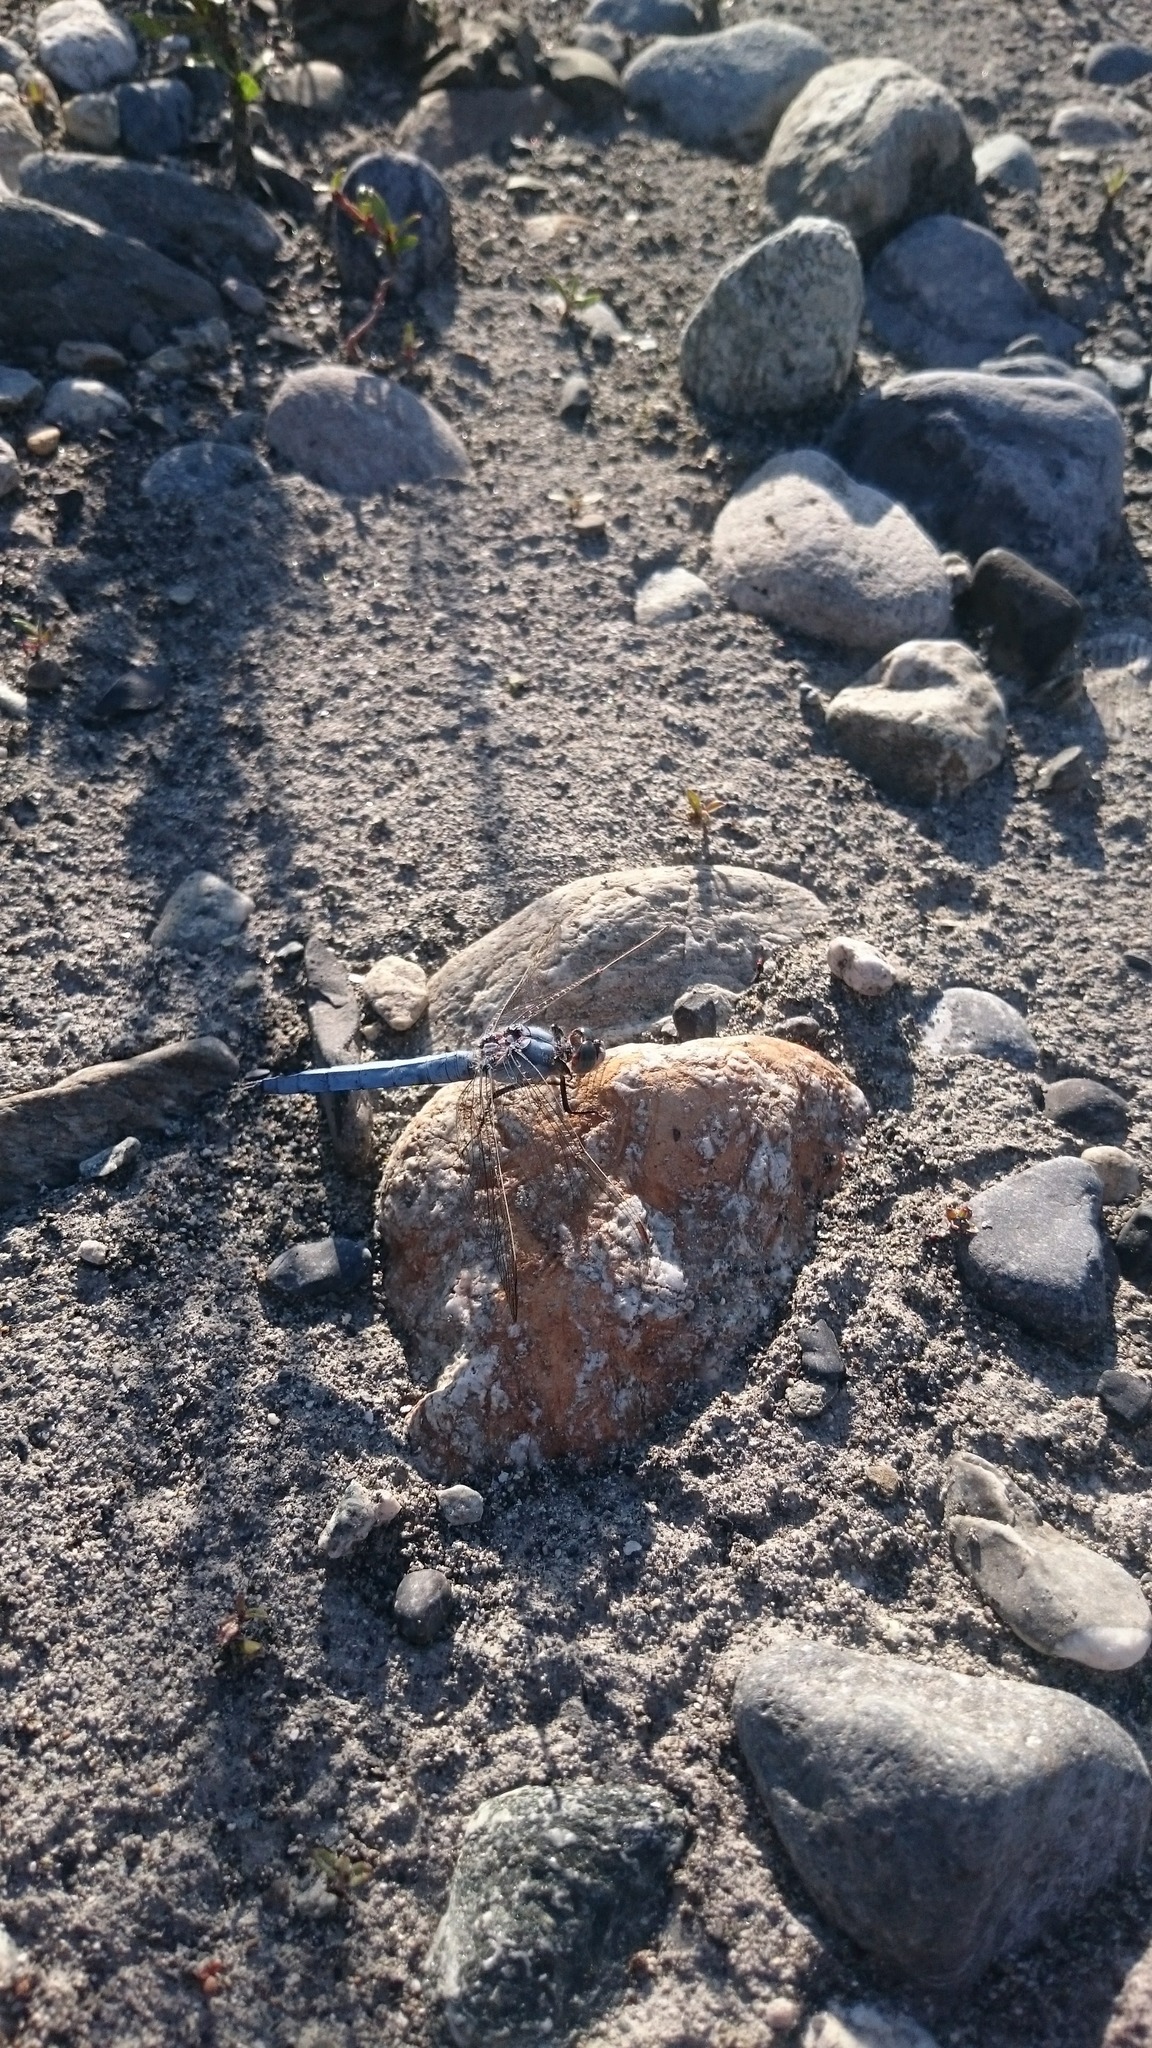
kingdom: Animalia
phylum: Arthropoda
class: Insecta
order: Odonata
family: Libellulidae
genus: Orthetrum
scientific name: Orthetrum brunneum
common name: Southern skimmer
